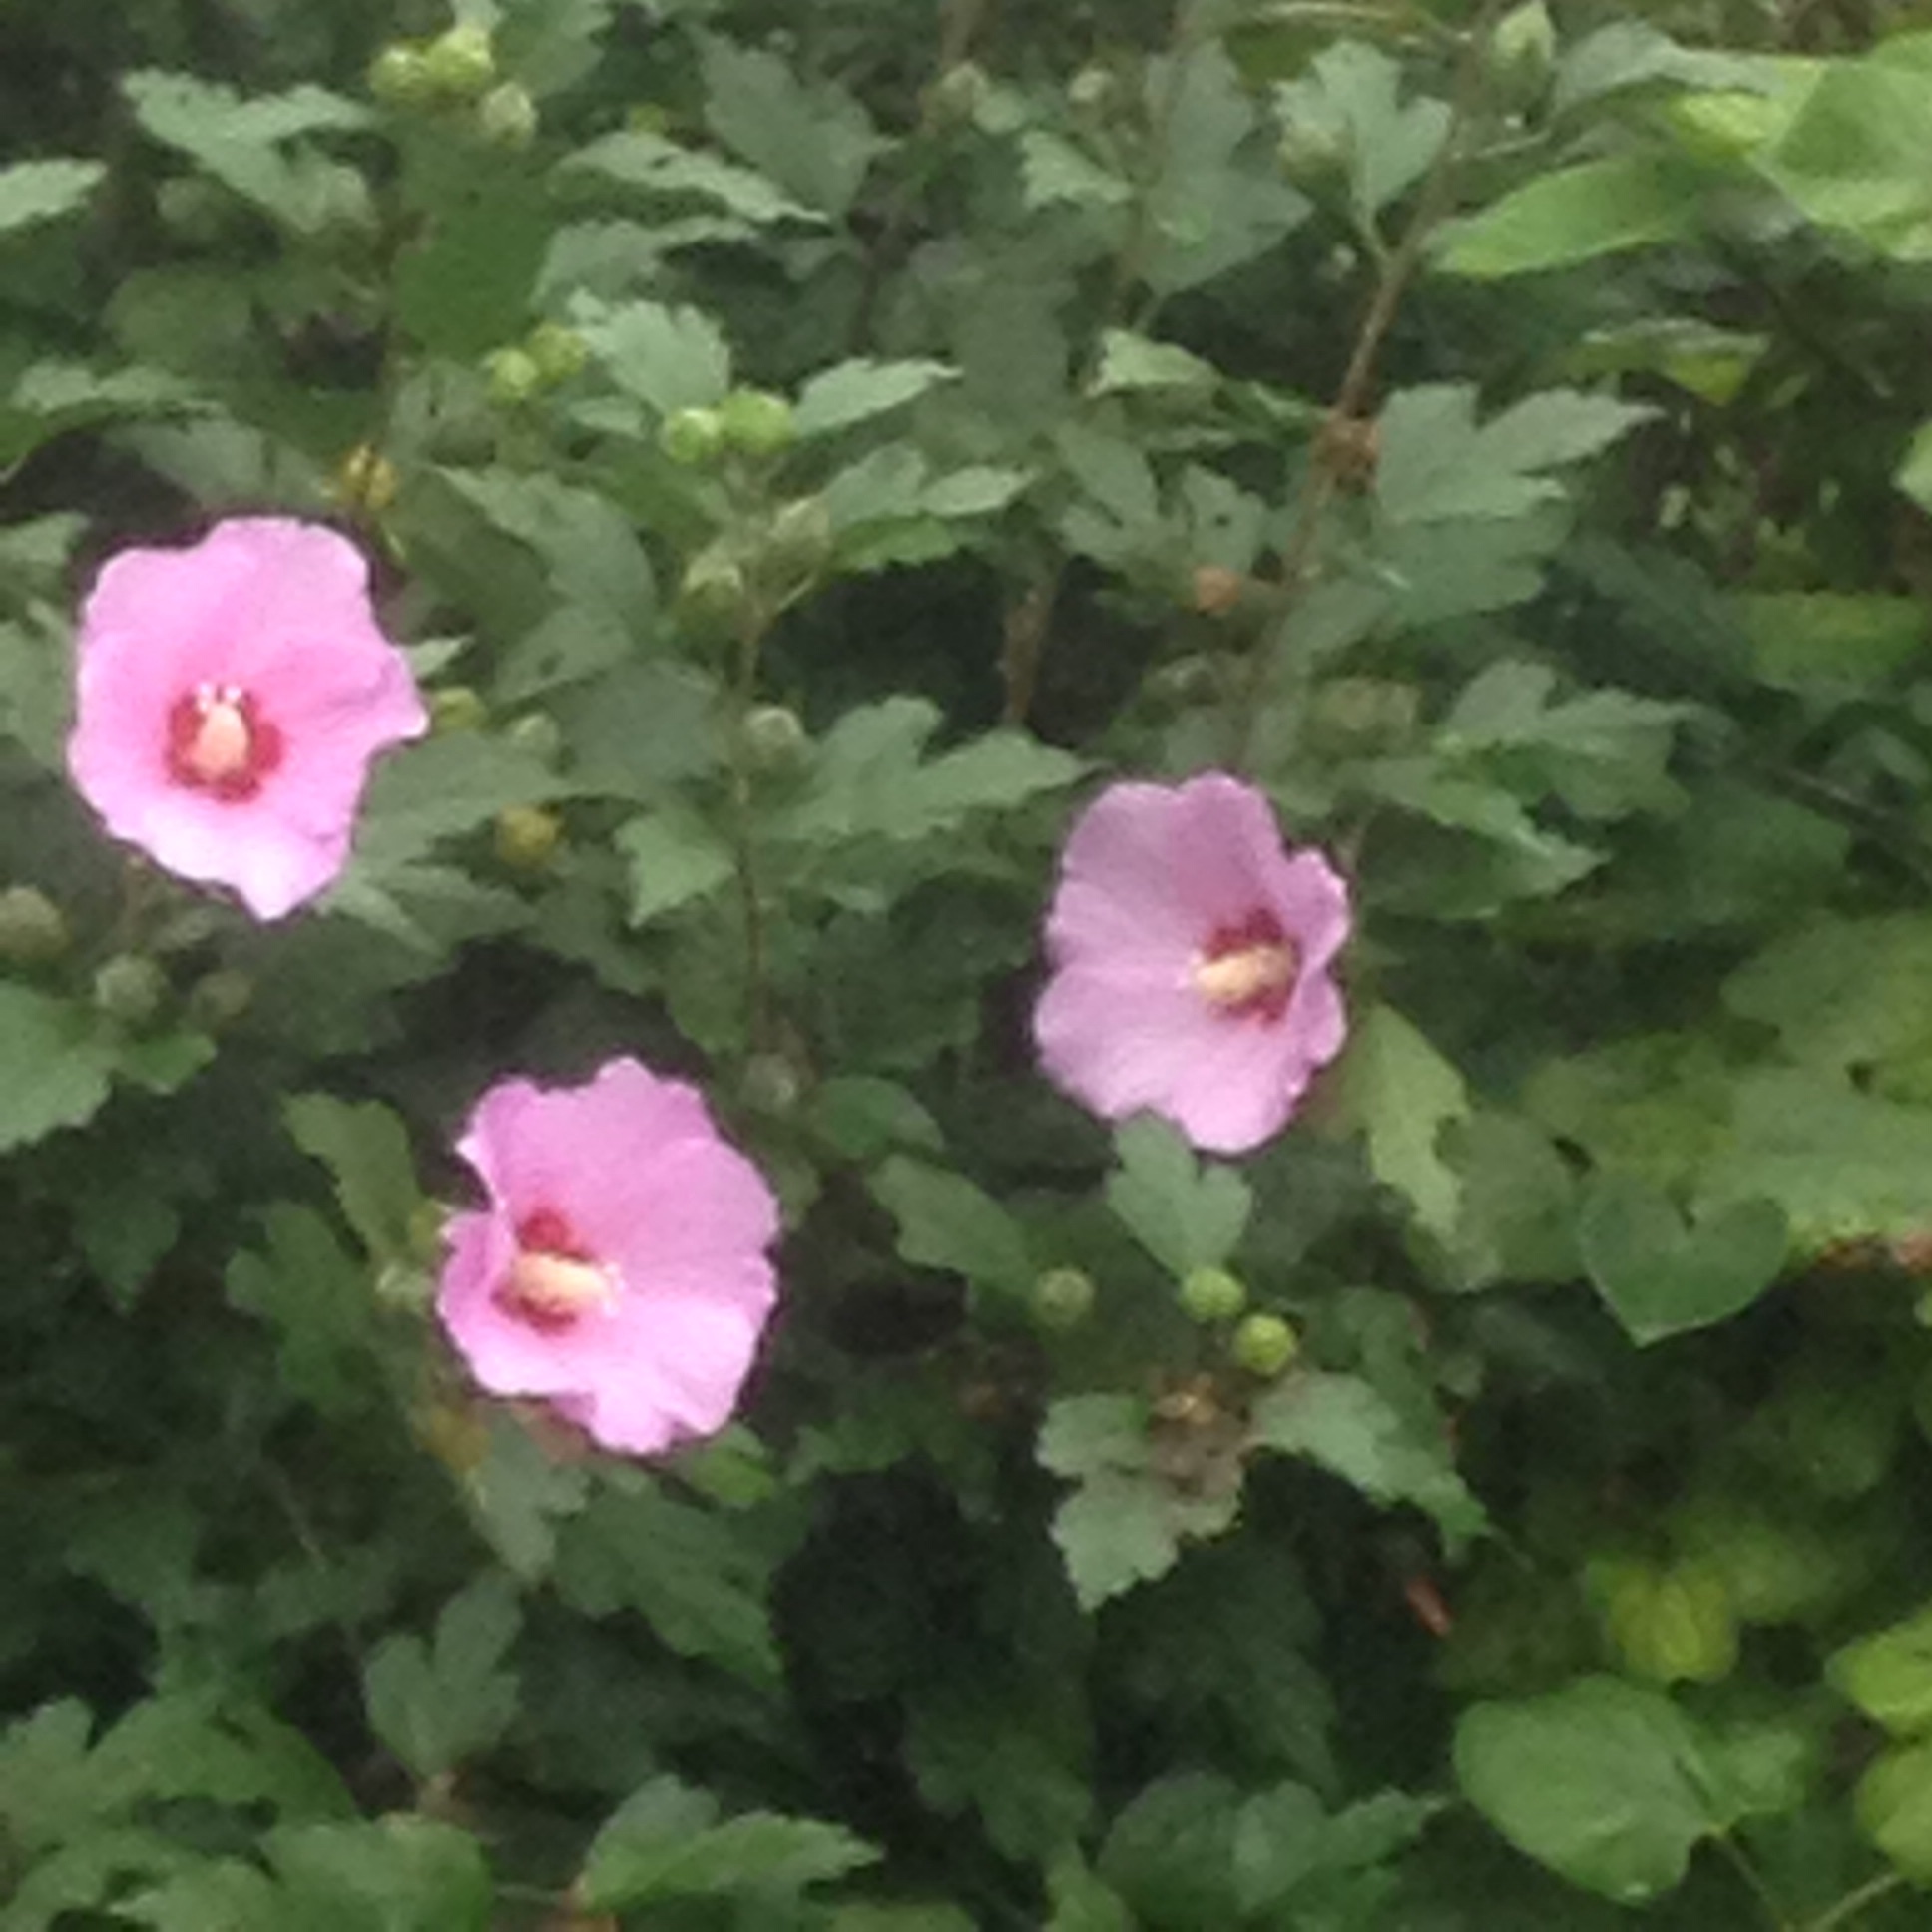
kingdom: Plantae
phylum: Tracheophyta
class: Magnoliopsida
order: Malvales
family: Malvaceae
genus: Hibiscus
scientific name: Hibiscus syriacus
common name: Syrian ketmia
